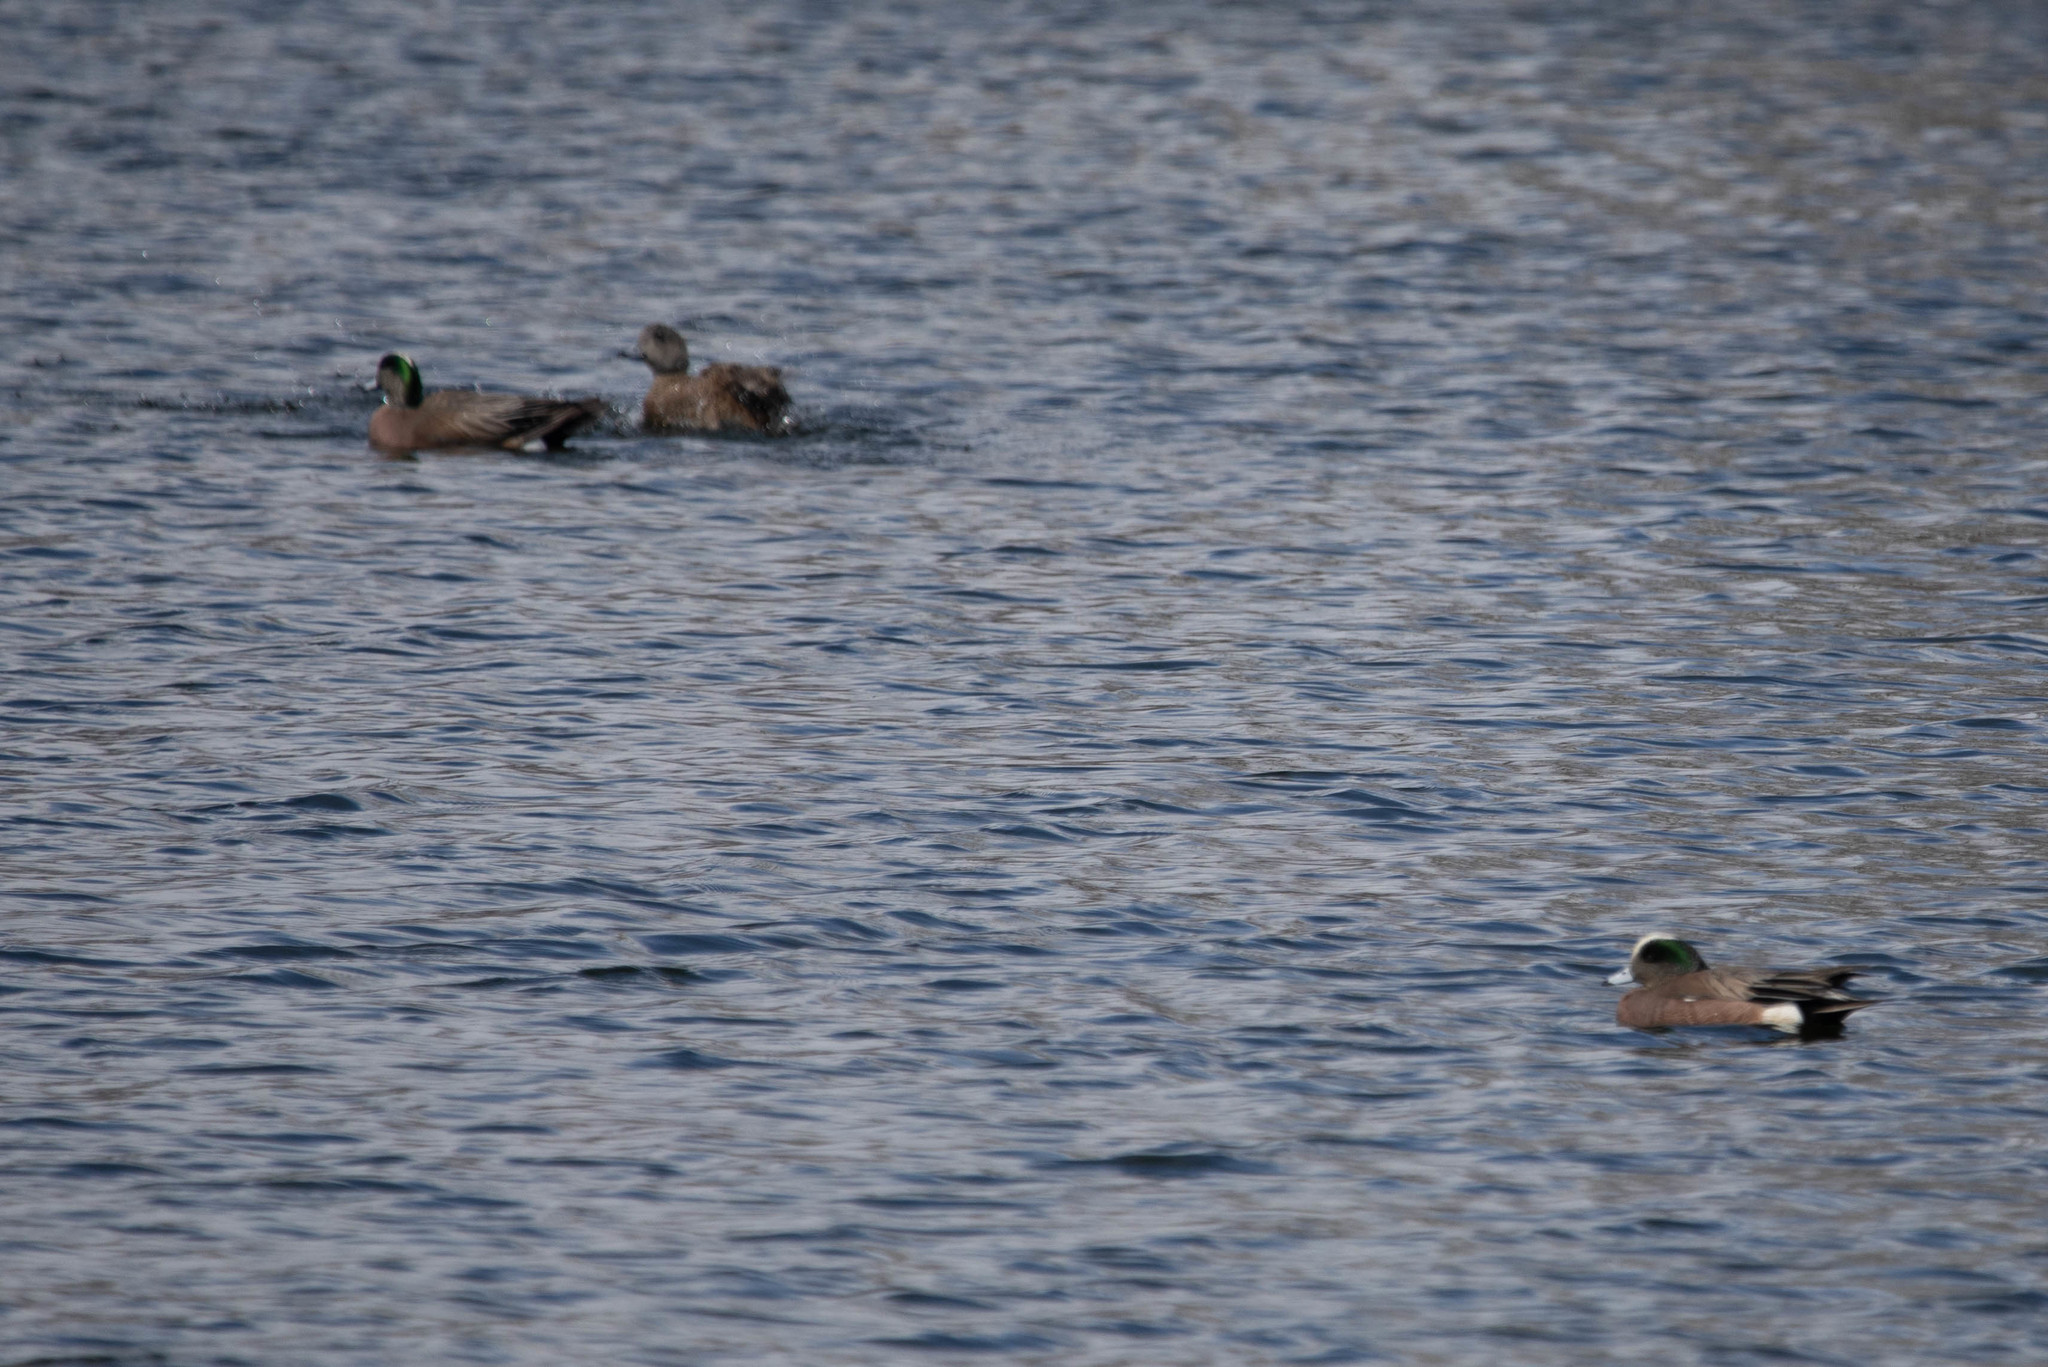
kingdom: Animalia
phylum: Chordata
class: Aves
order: Anseriformes
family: Anatidae
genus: Mareca
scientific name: Mareca americana
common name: American wigeon
